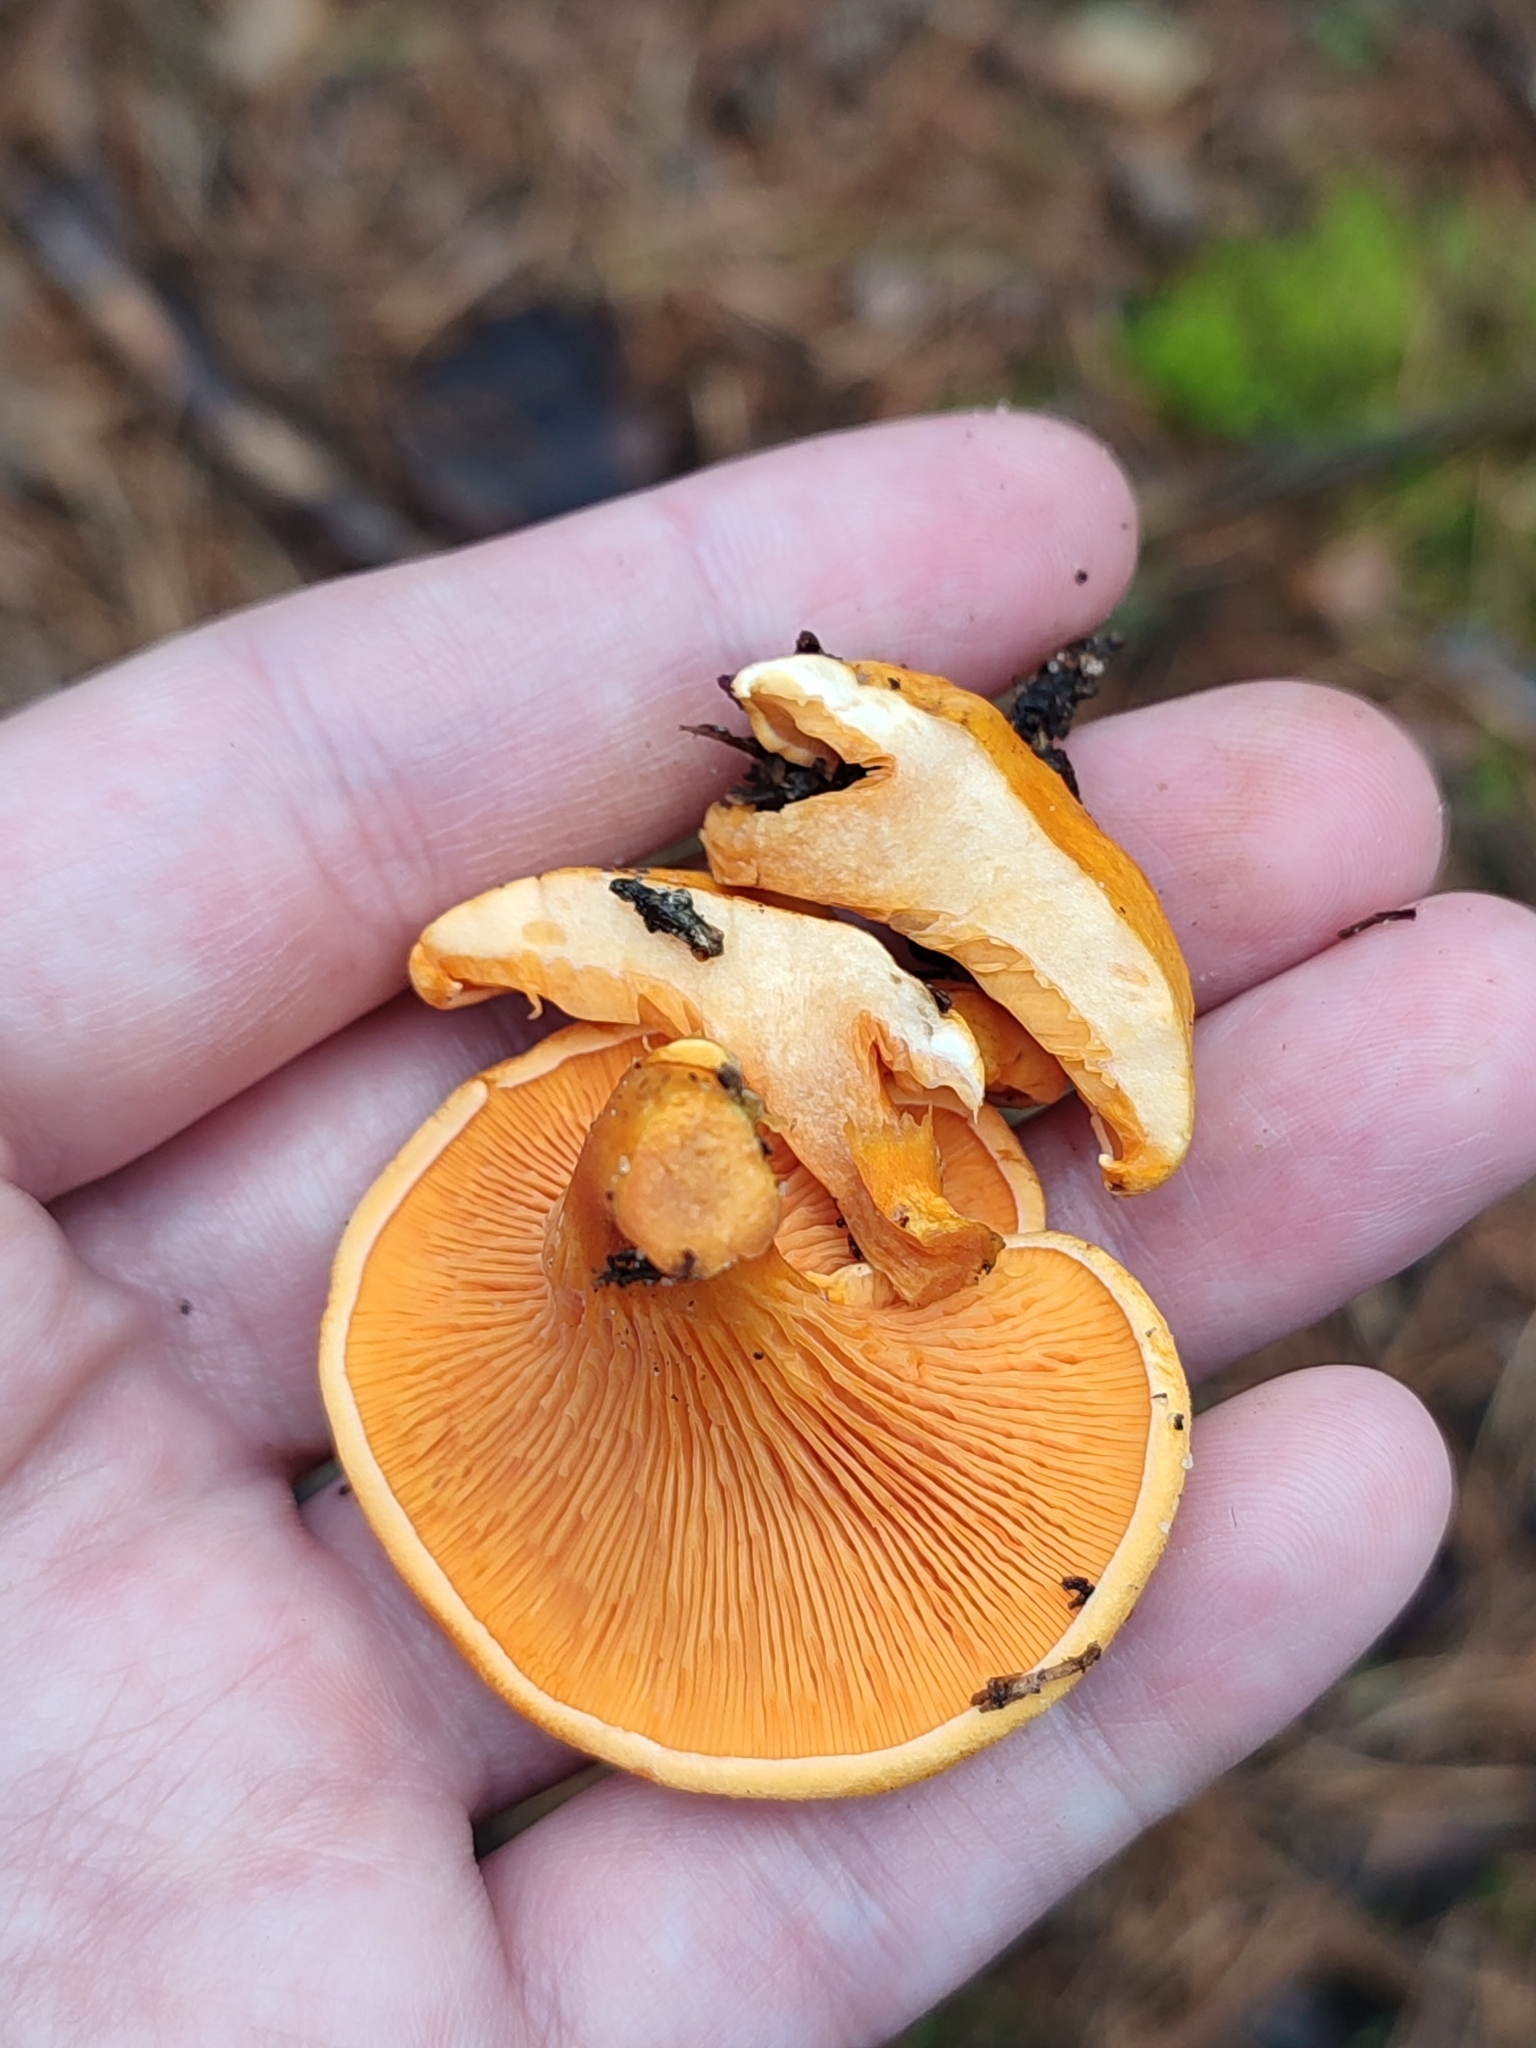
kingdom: Fungi
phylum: Basidiomycota
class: Agaricomycetes
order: Boletales
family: Hygrophoropsidaceae
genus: Hygrophoropsis
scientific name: Hygrophoropsis aurantiaca
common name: False chanterelle
